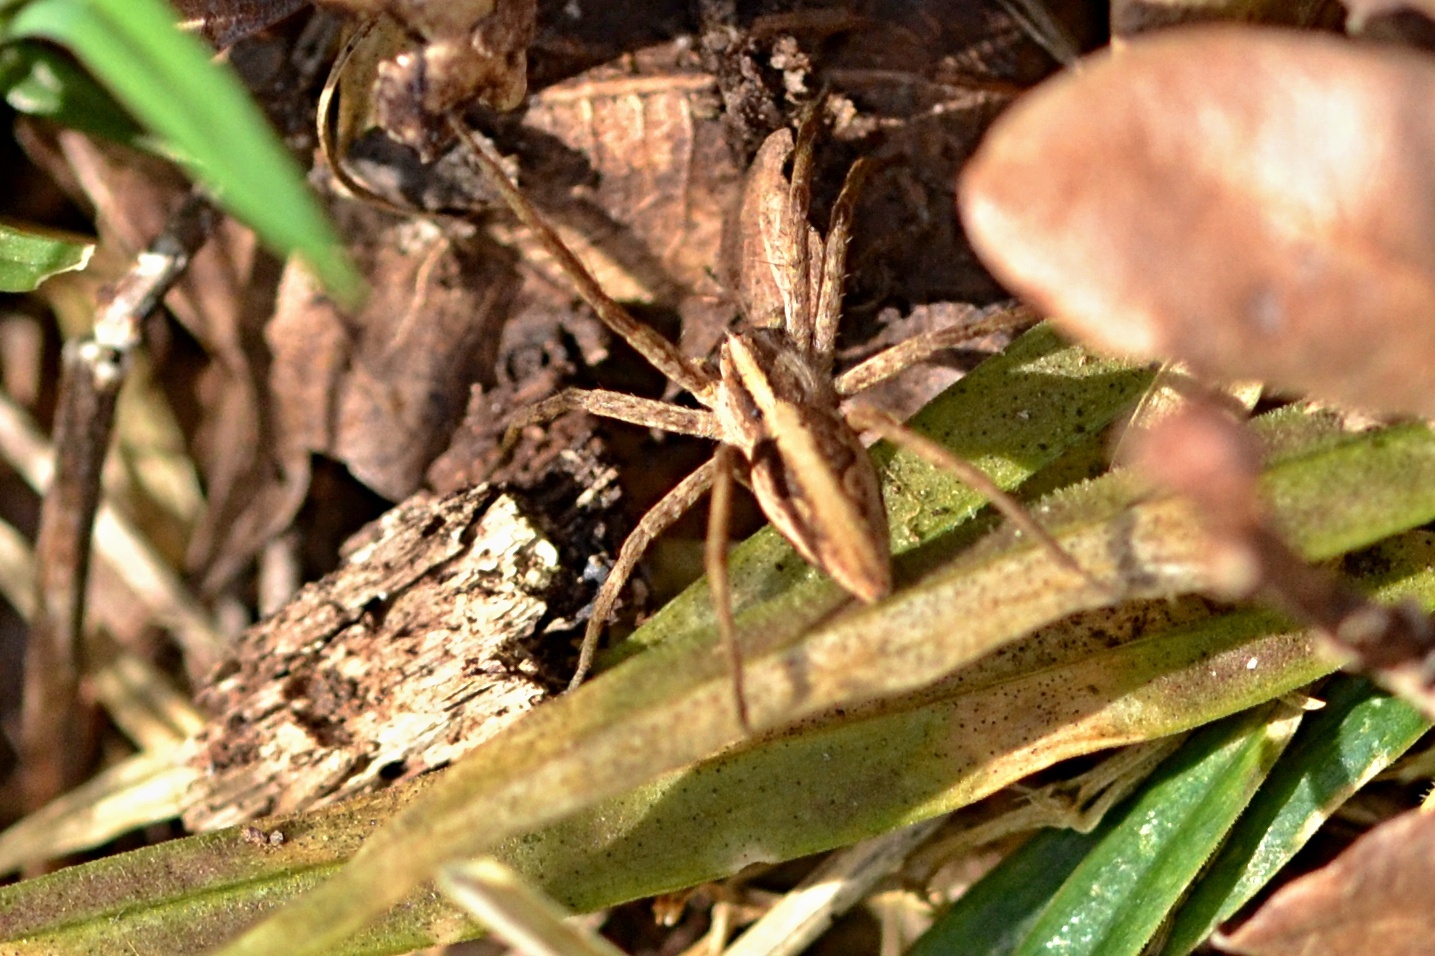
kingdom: Animalia
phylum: Arthropoda
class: Arachnida
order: Araneae
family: Pisauridae
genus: Pisaura
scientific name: Pisaura mirabilis
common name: Tent spider
